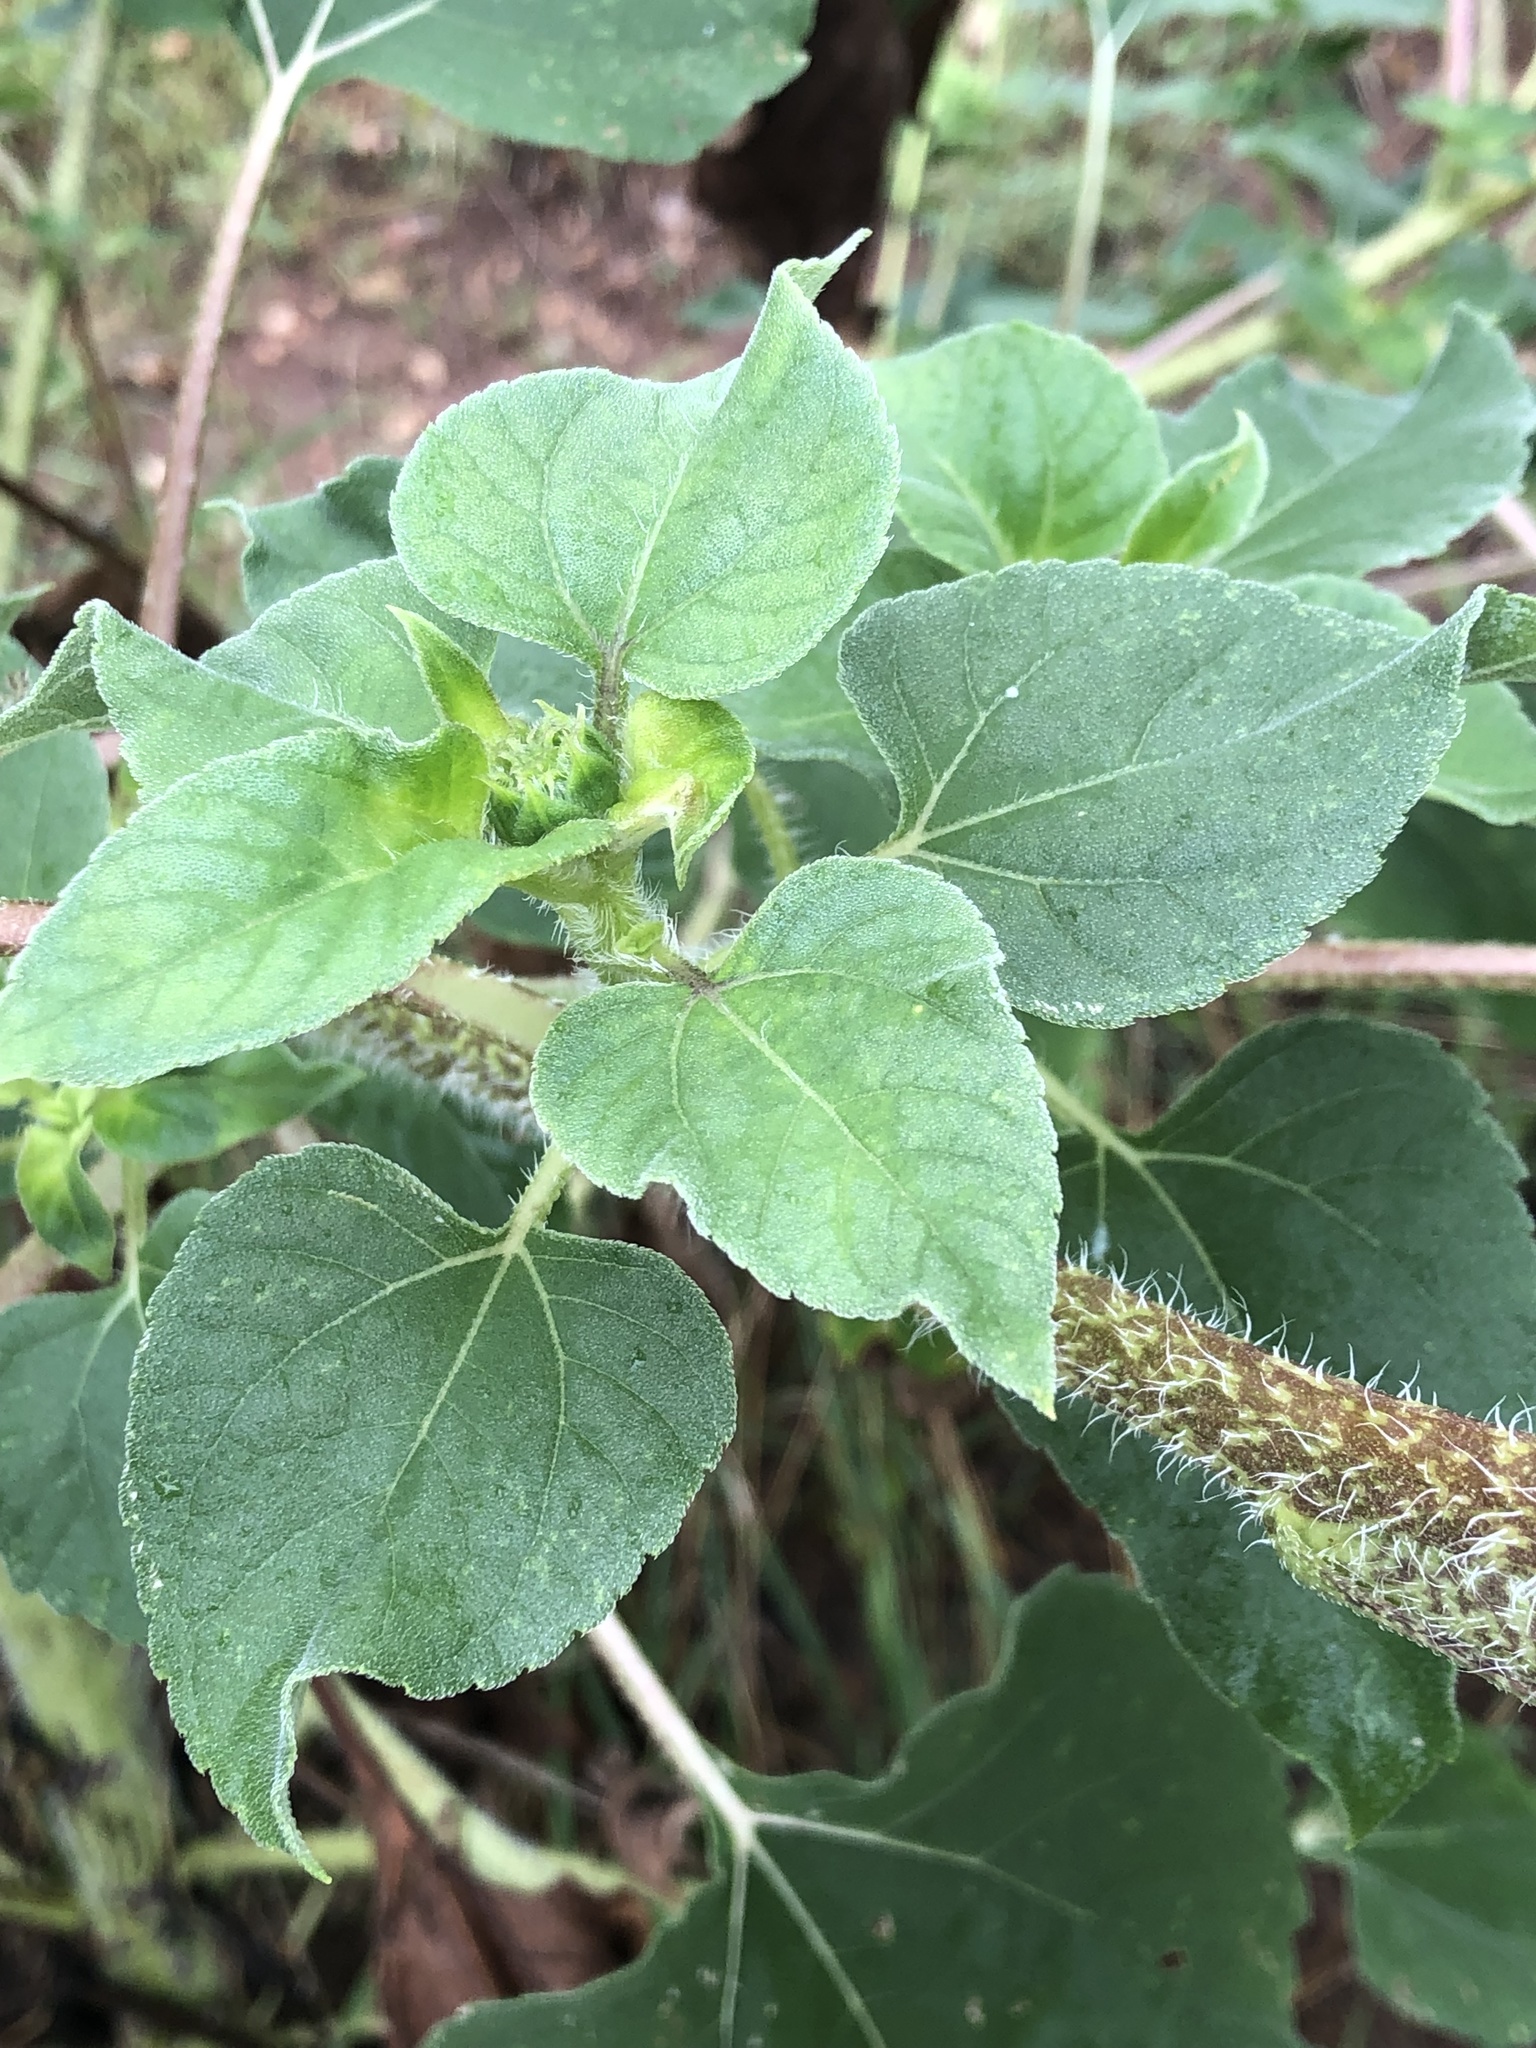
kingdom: Plantae
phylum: Tracheophyta
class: Magnoliopsida
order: Asterales
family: Asteraceae
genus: Helianthus
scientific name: Helianthus annuus
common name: Sunflower
